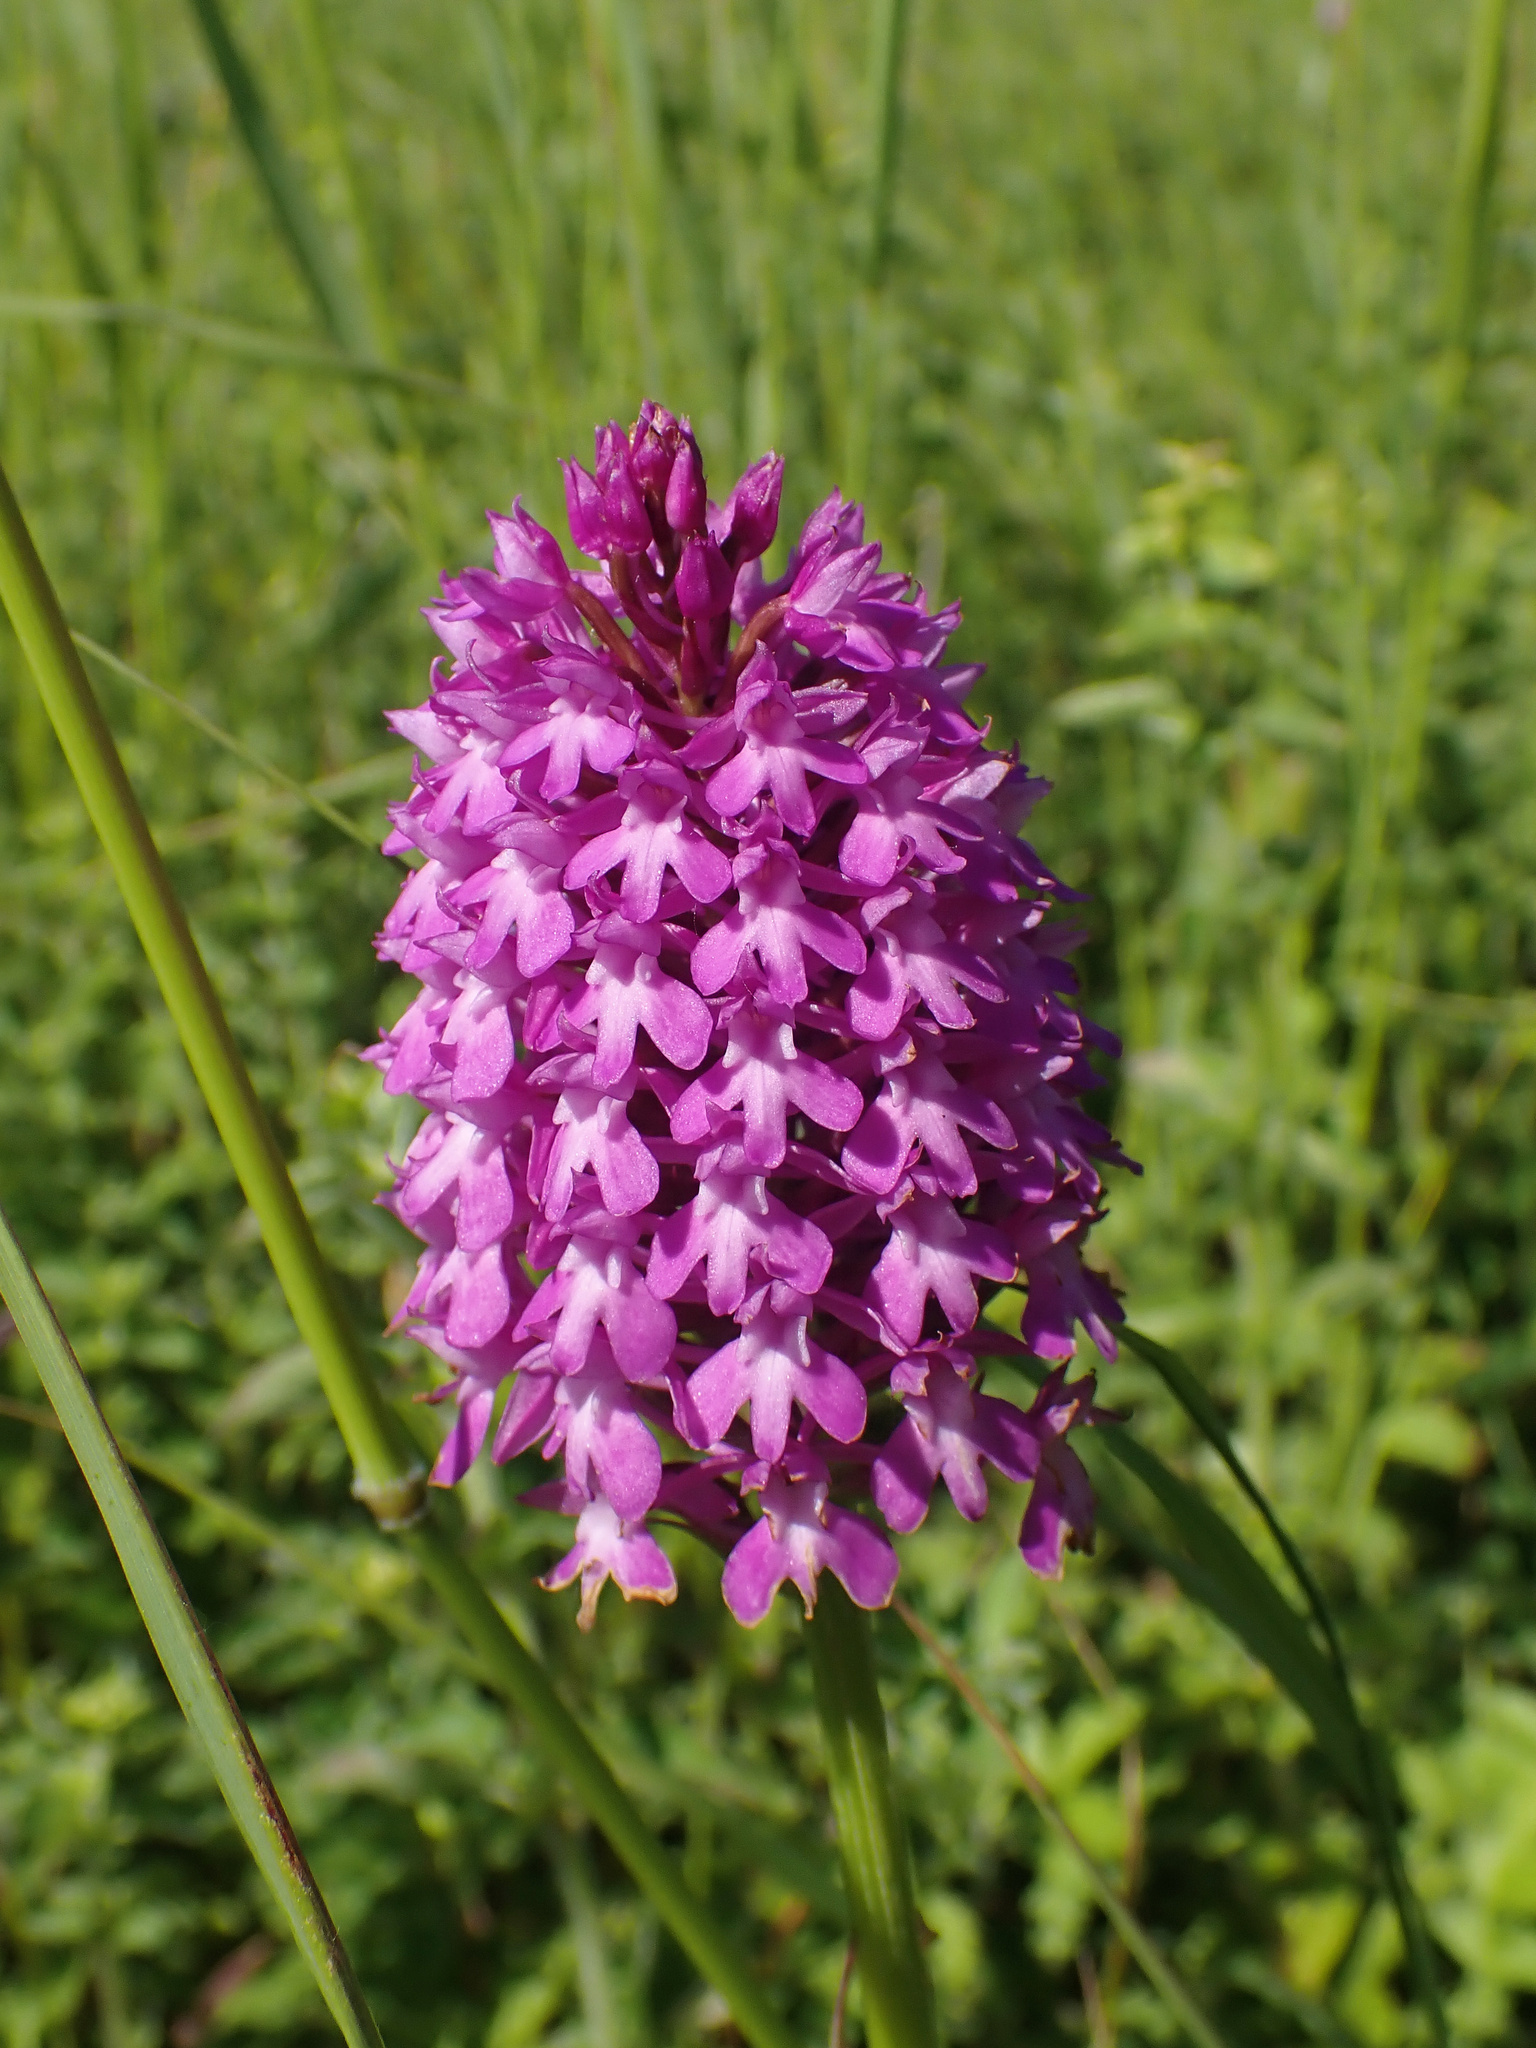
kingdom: Plantae
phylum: Tracheophyta
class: Liliopsida
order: Asparagales
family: Orchidaceae
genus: Anacamptis
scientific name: Anacamptis pyramidalis
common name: Pyramidal orchid
